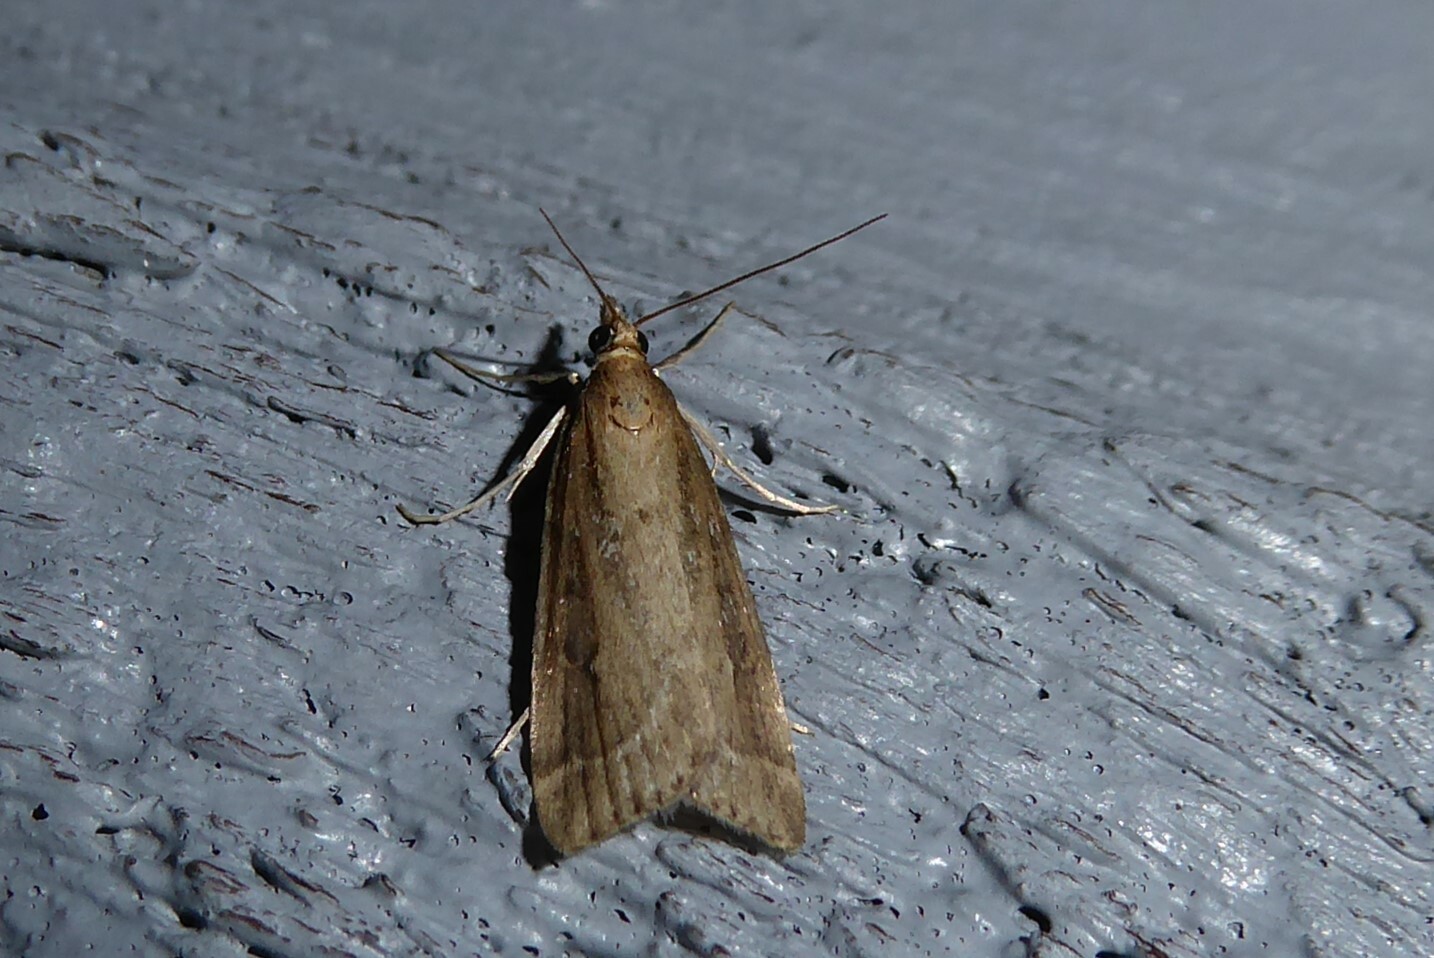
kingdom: Animalia
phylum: Arthropoda
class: Insecta
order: Lepidoptera
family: Crambidae
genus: Eudonia
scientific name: Eudonia octophora
